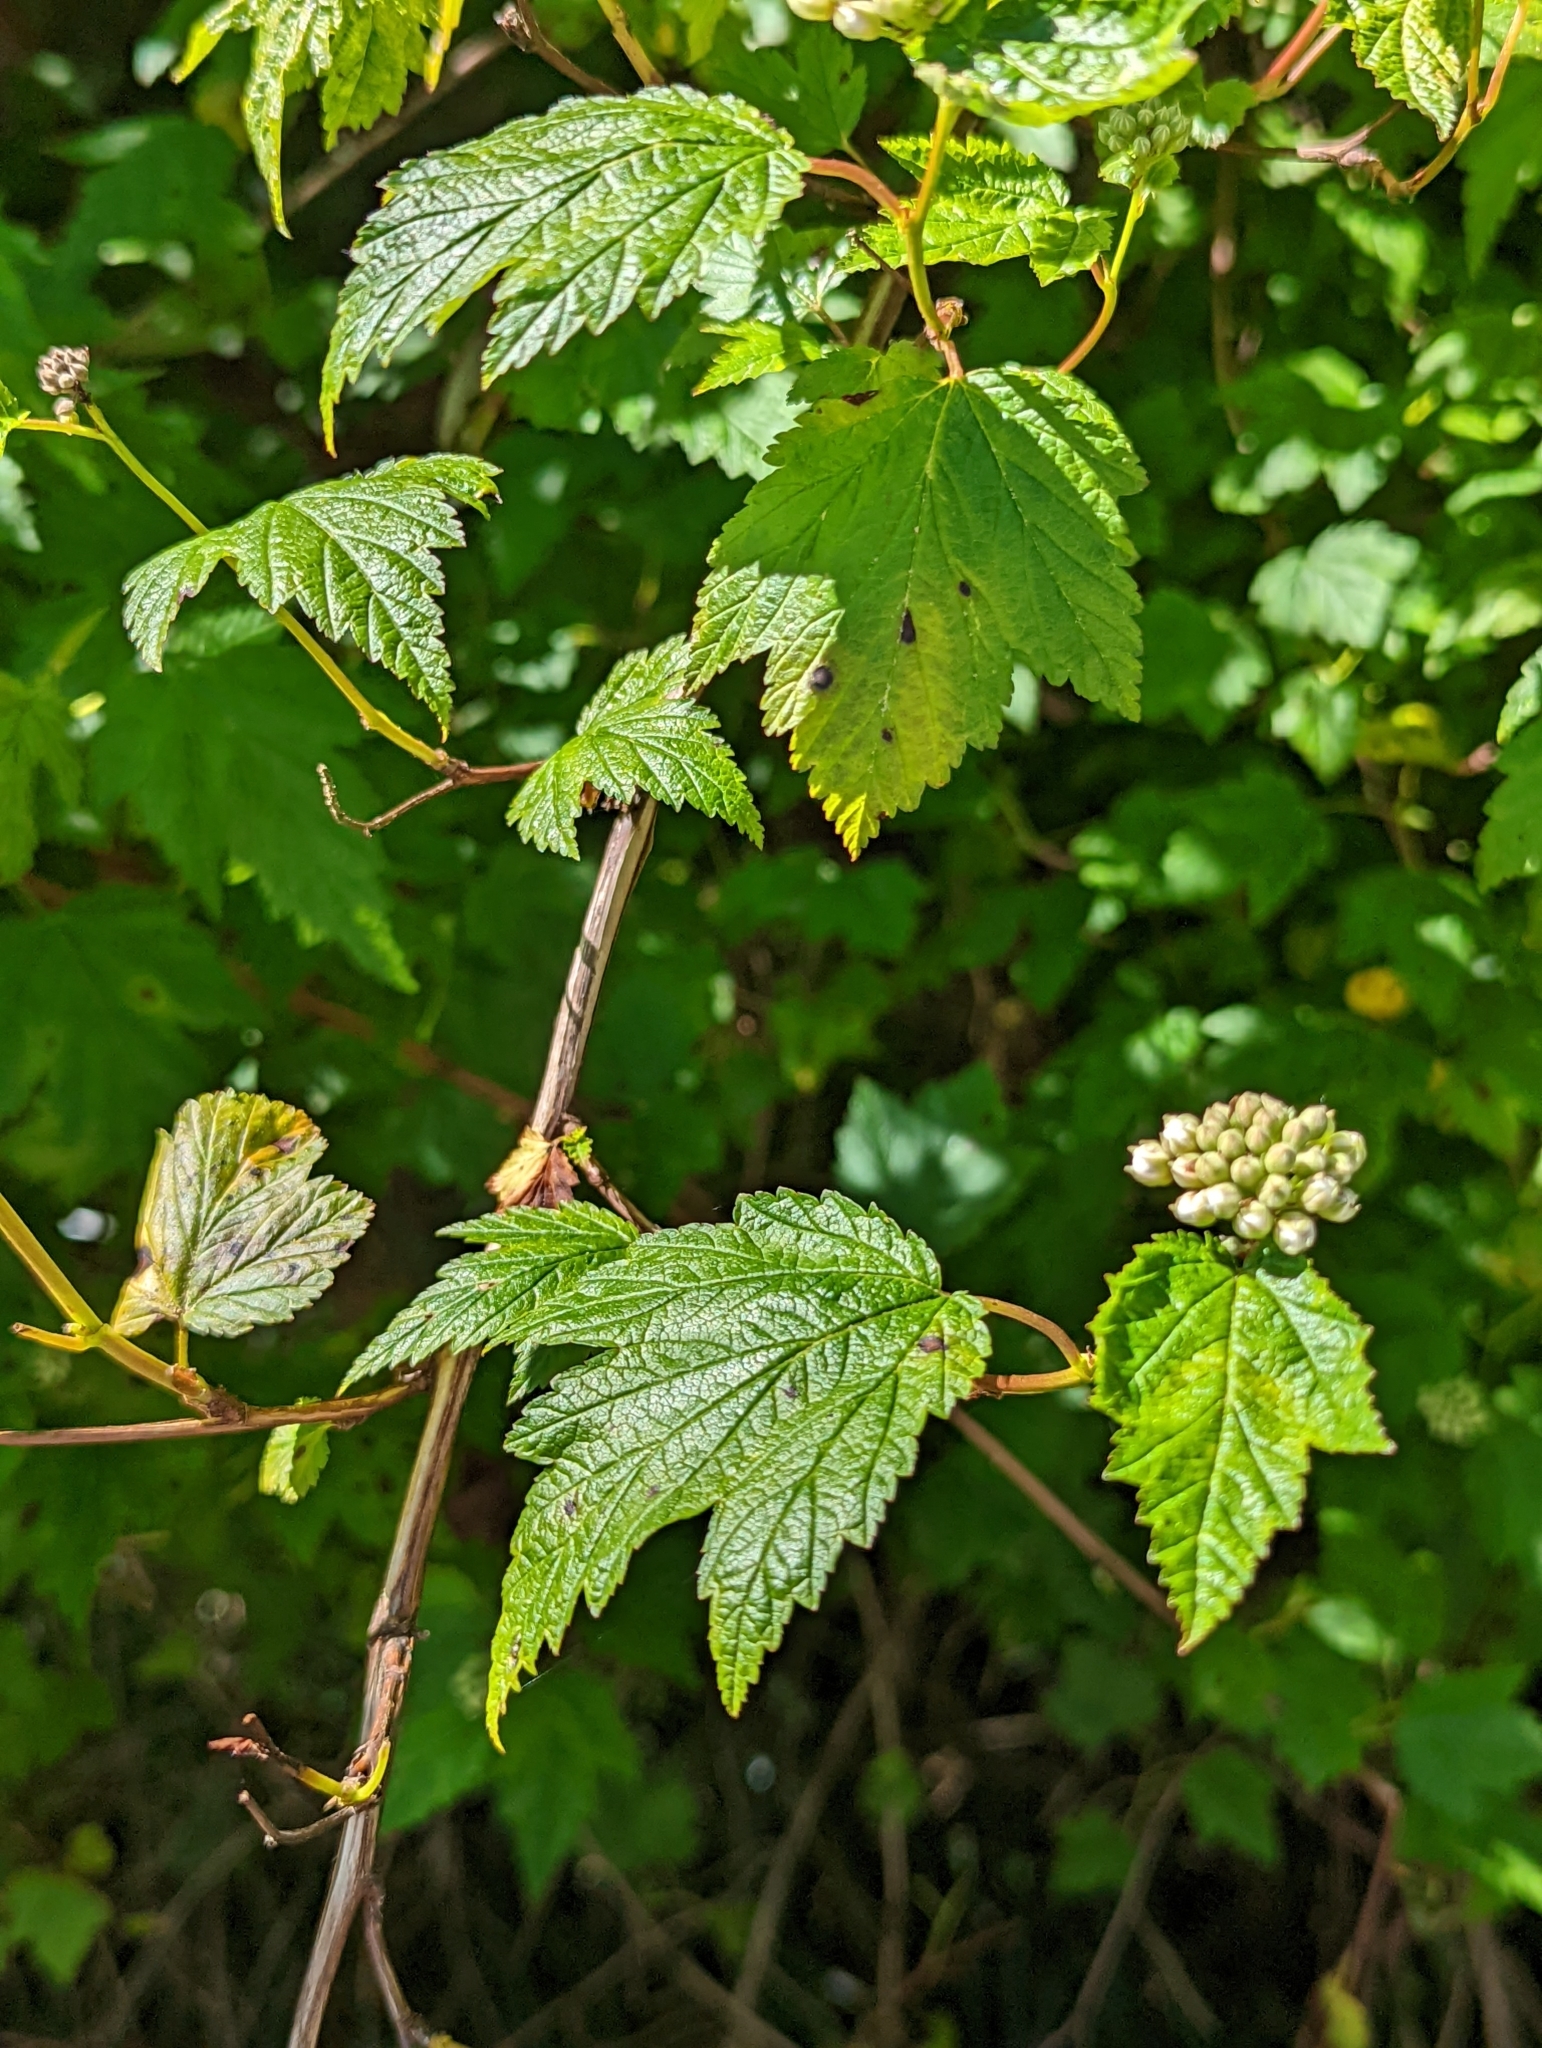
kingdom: Plantae
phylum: Tracheophyta
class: Magnoliopsida
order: Rosales
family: Rosaceae
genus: Physocarpus
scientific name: Physocarpus capitatus
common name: Pacific ninebark
